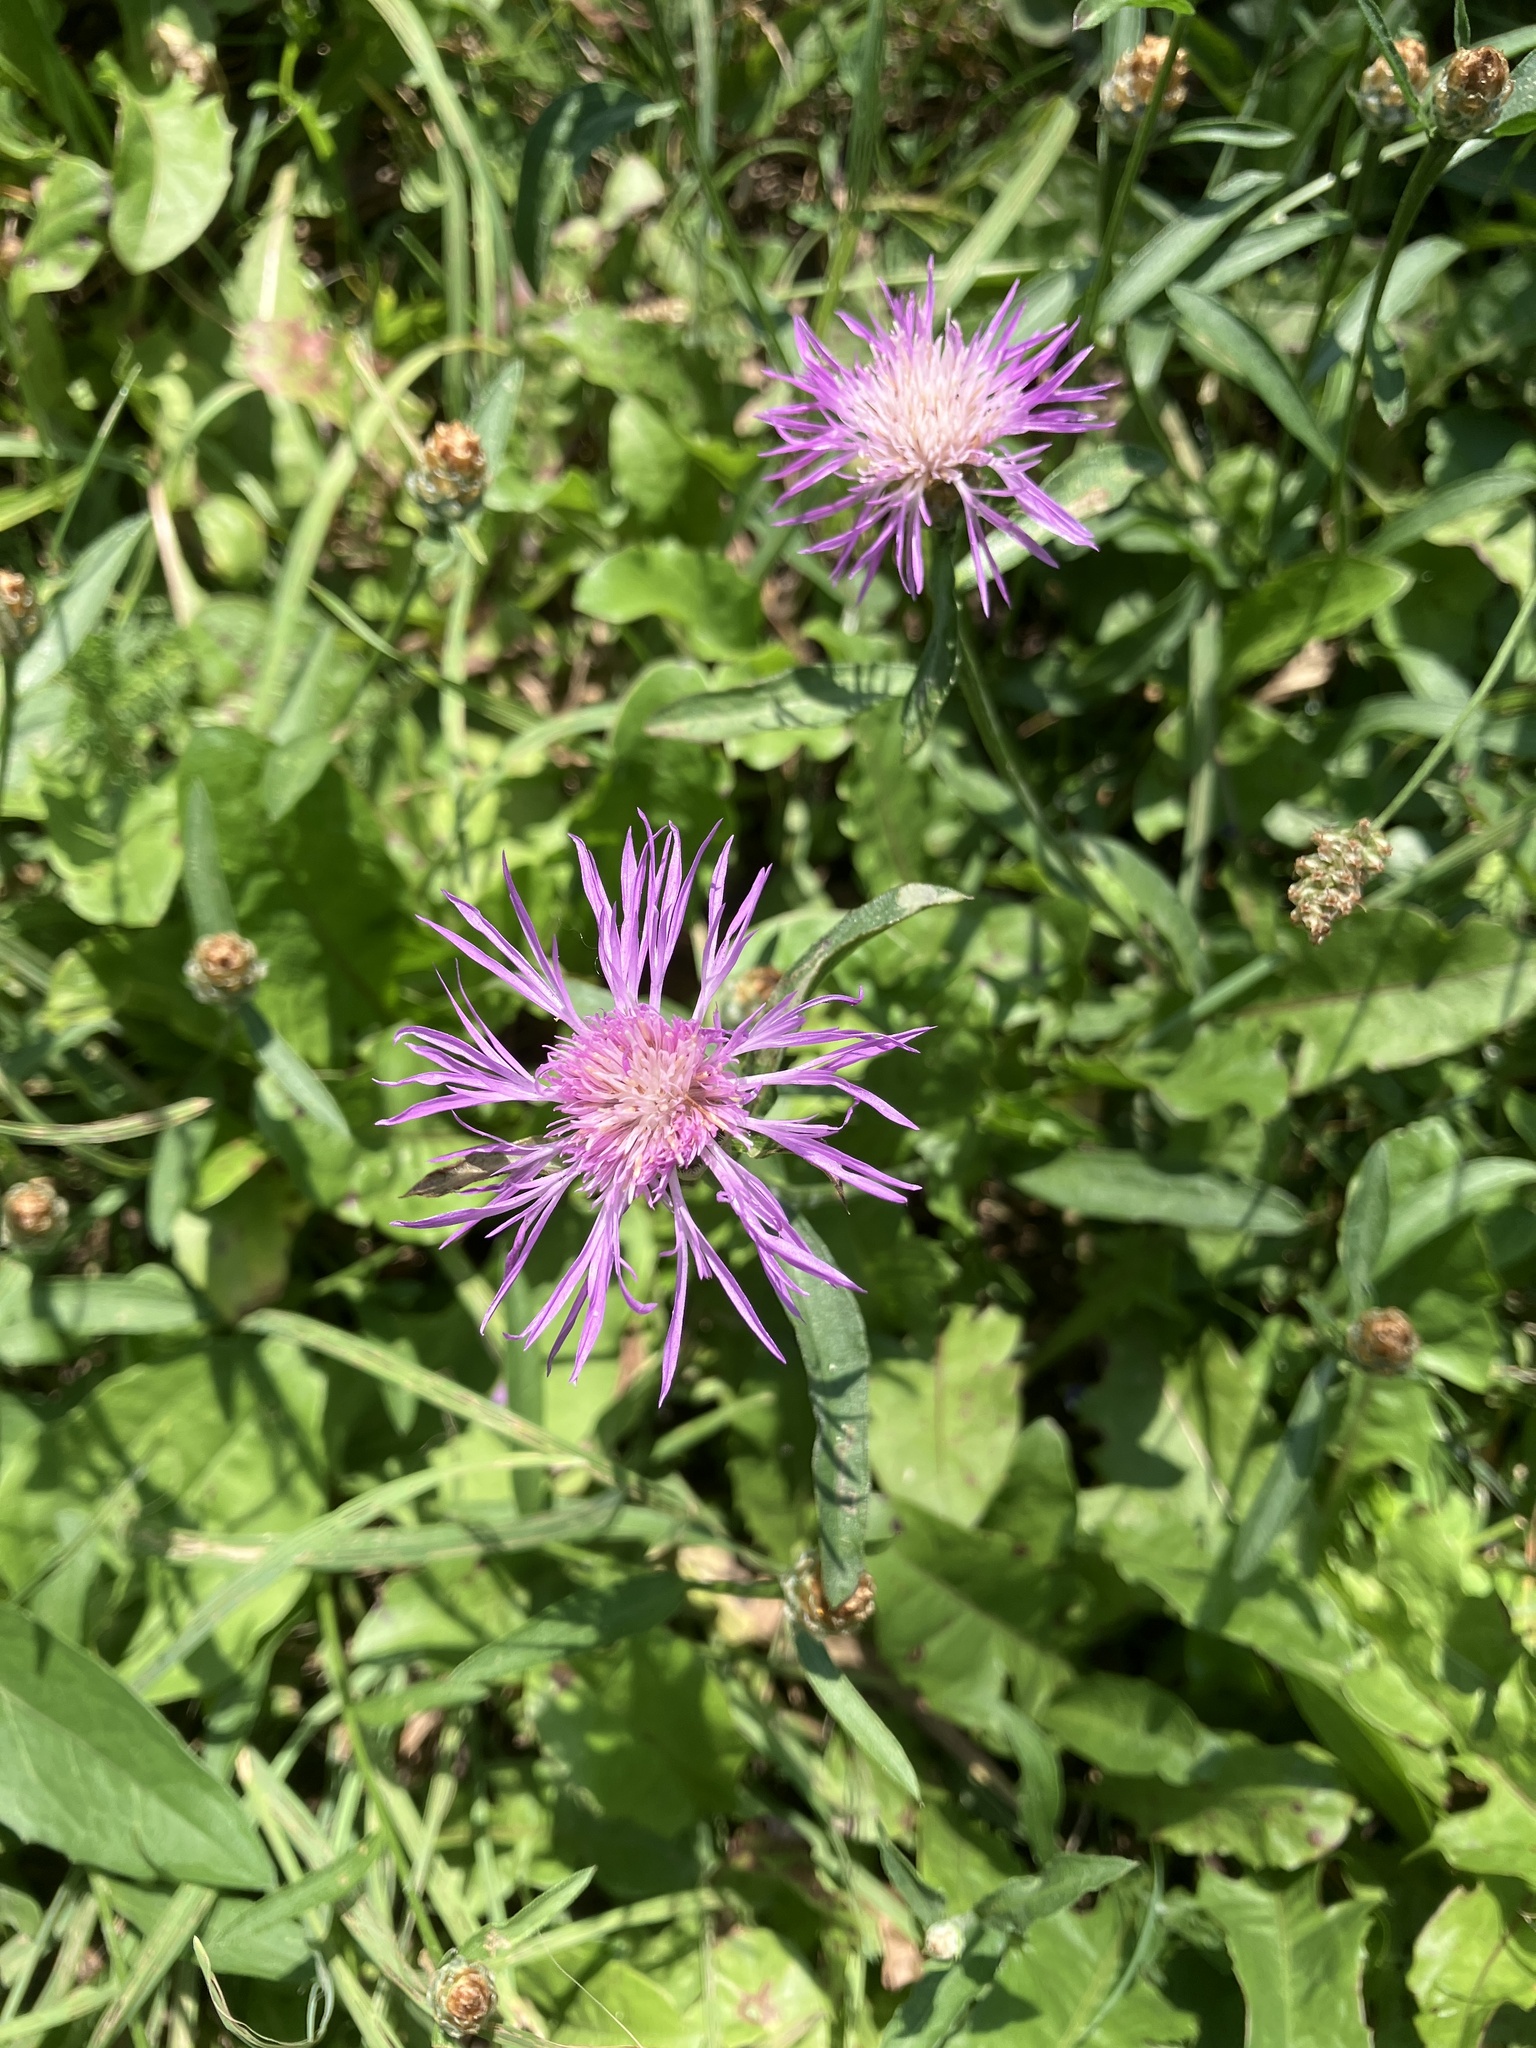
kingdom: Plantae
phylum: Tracheophyta
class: Magnoliopsida
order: Asterales
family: Asteraceae
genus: Centaurea
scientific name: Centaurea jacea
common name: Brown knapweed
